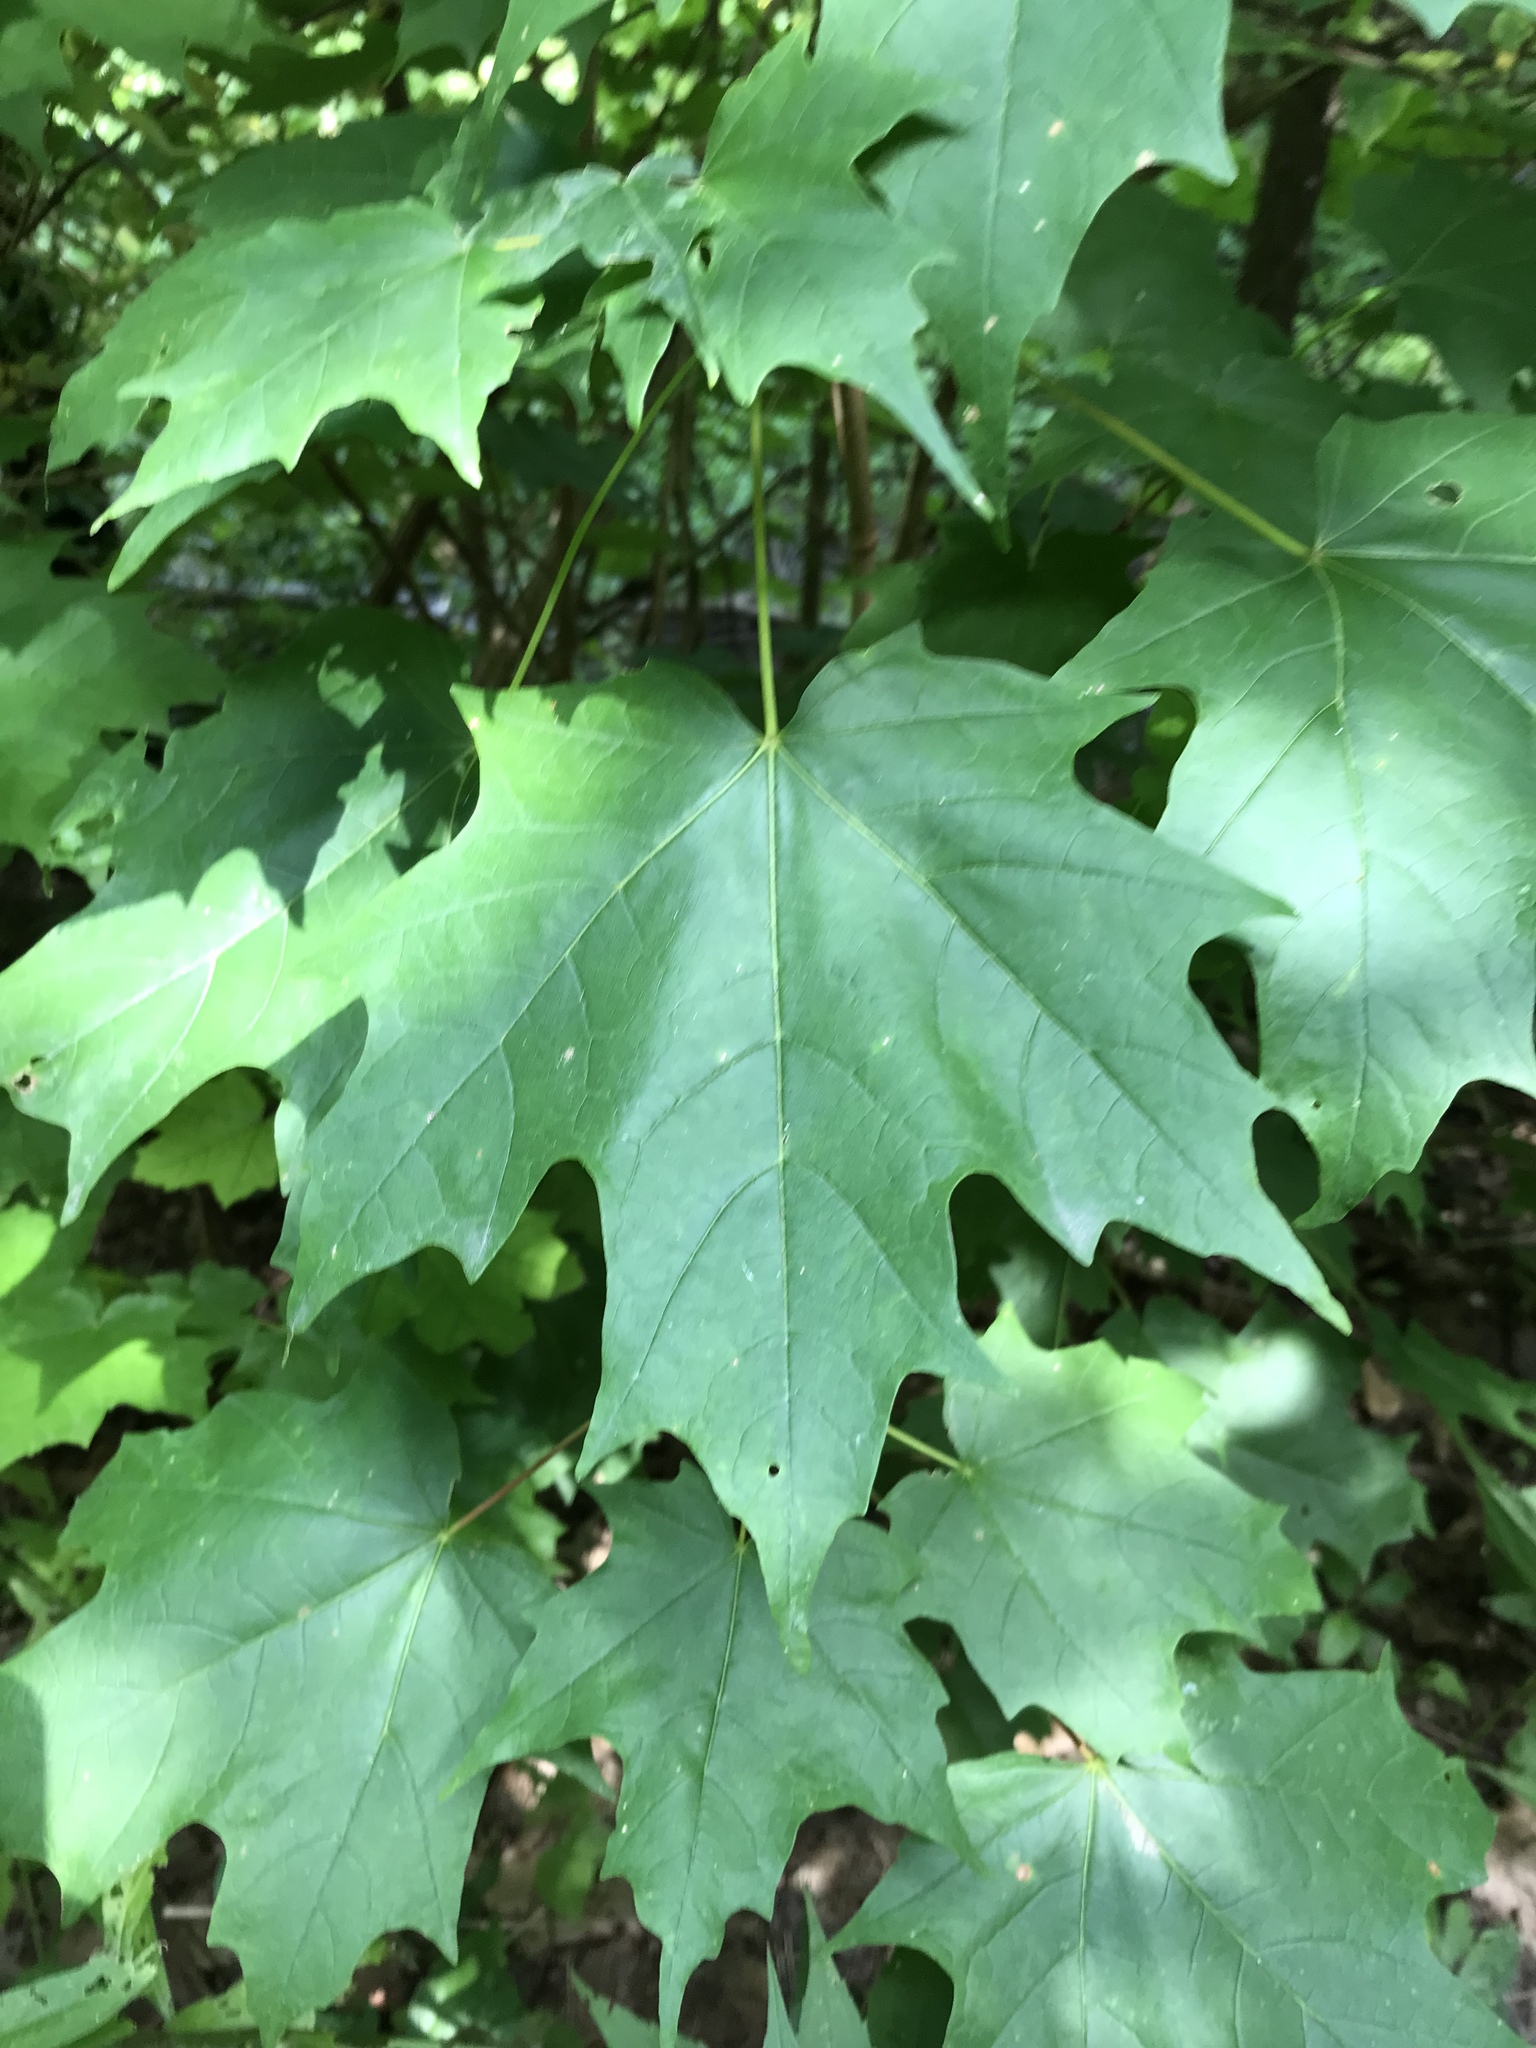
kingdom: Plantae
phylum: Tracheophyta
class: Magnoliopsida
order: Sapindales
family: Sapindaceae
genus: Acer
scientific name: Acer saccharum
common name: Sugar maple
